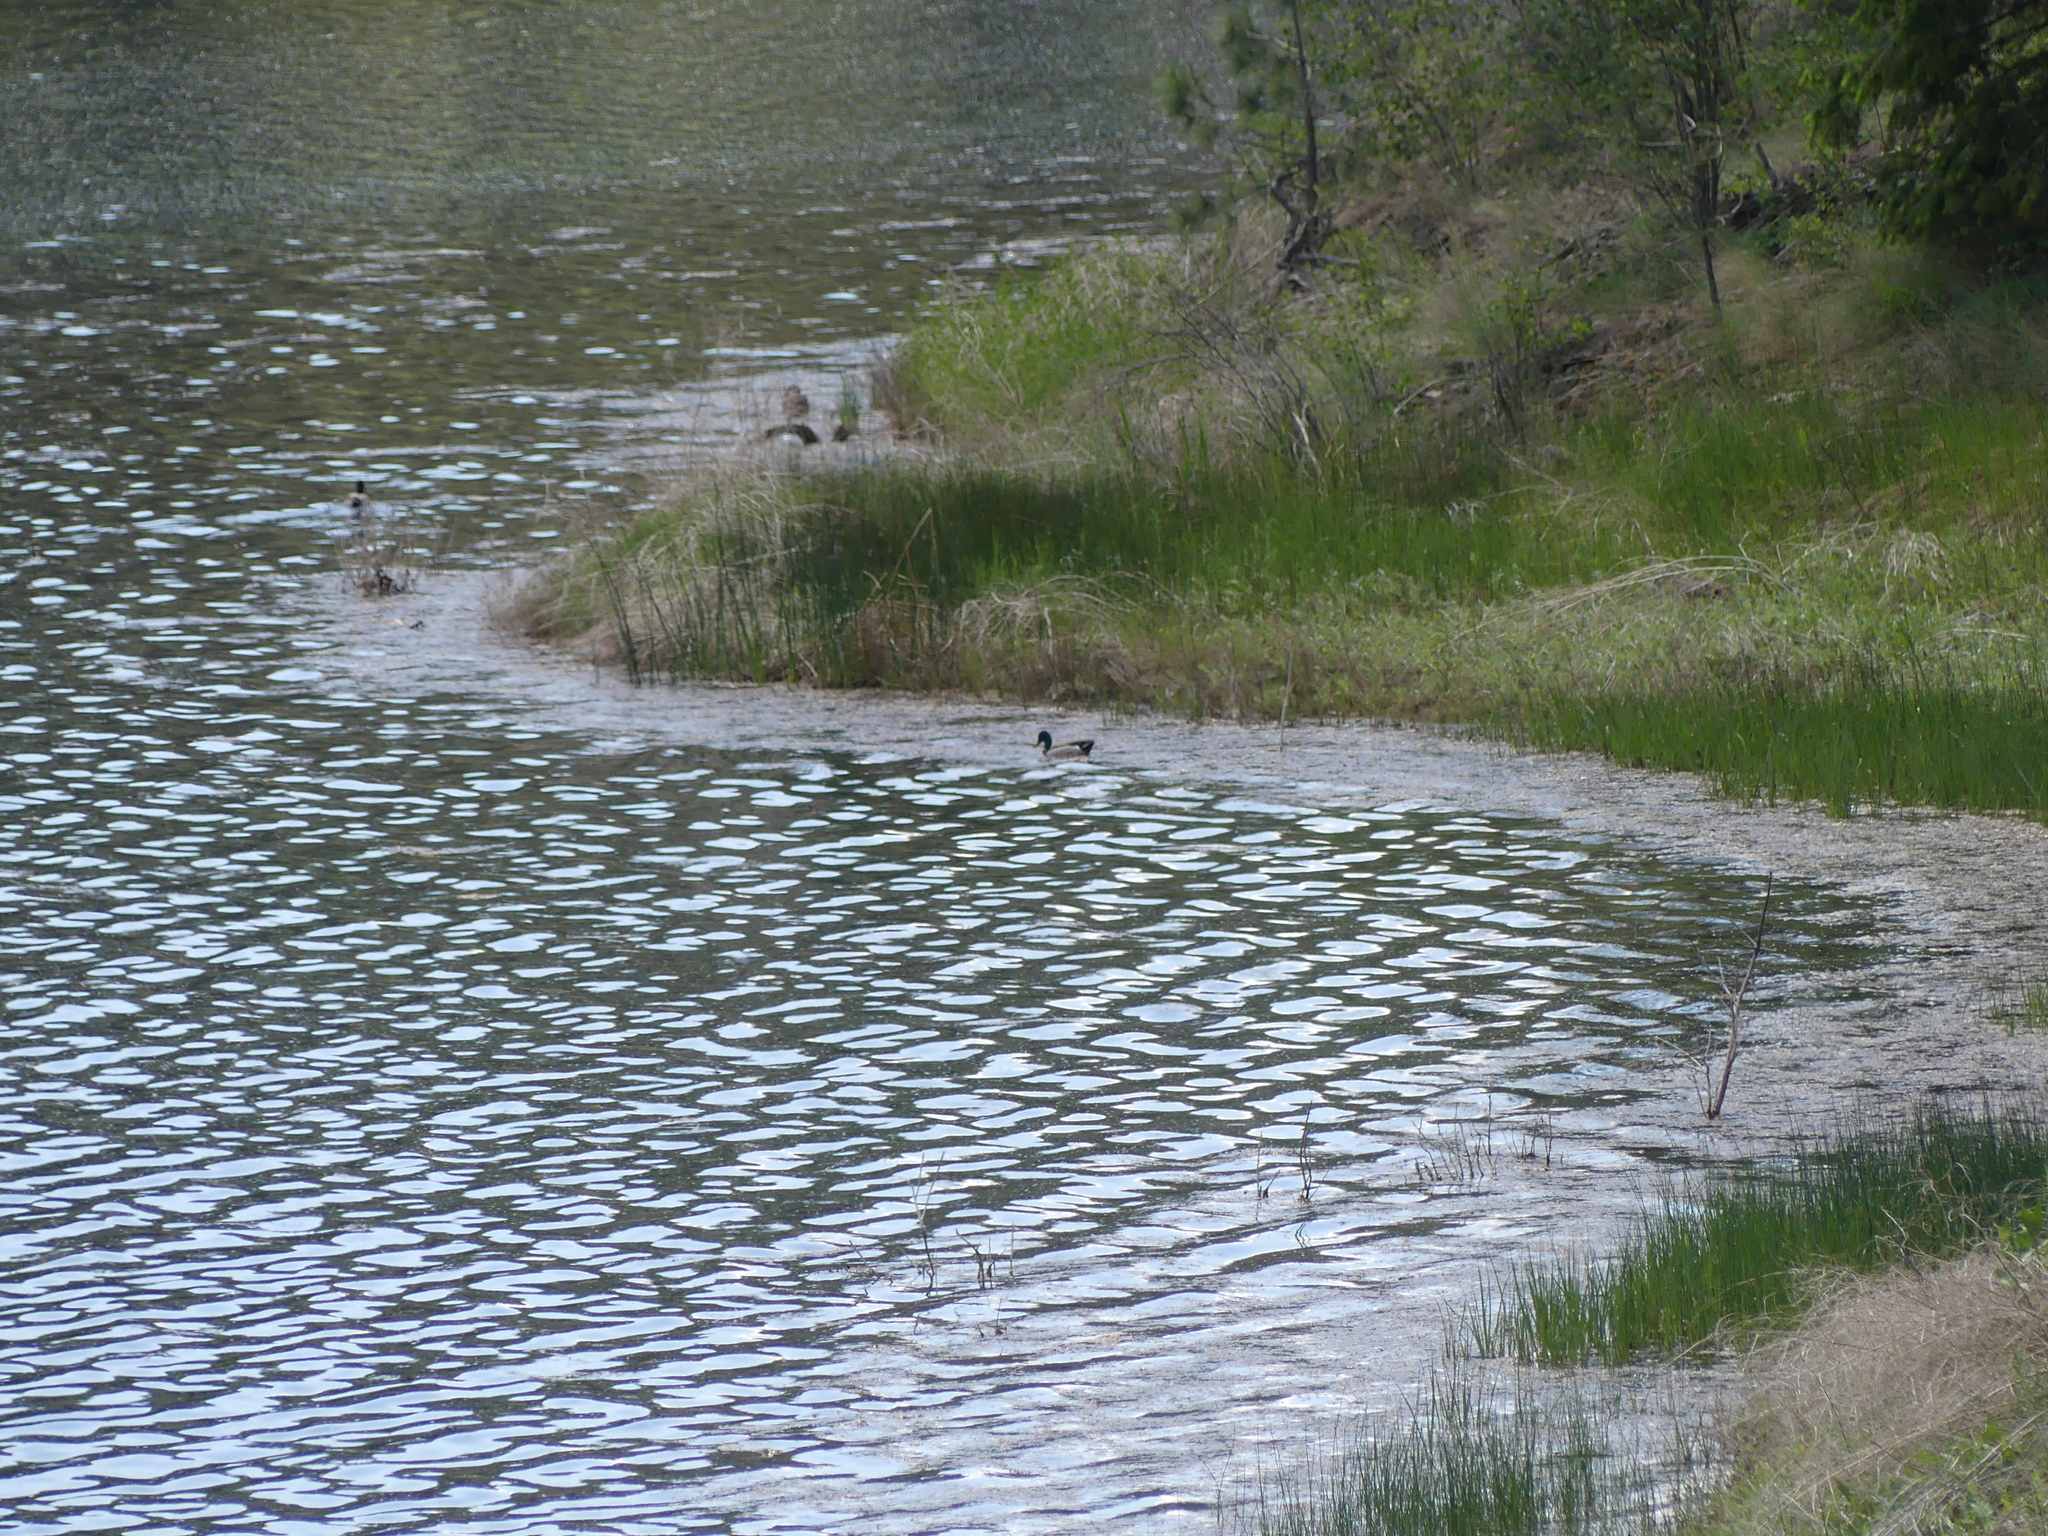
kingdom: Animalia
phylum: Chordata
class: Aves
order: Anseriformes
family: Anatidae
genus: Anas
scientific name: Anas platyrhynchos
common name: Mallard
